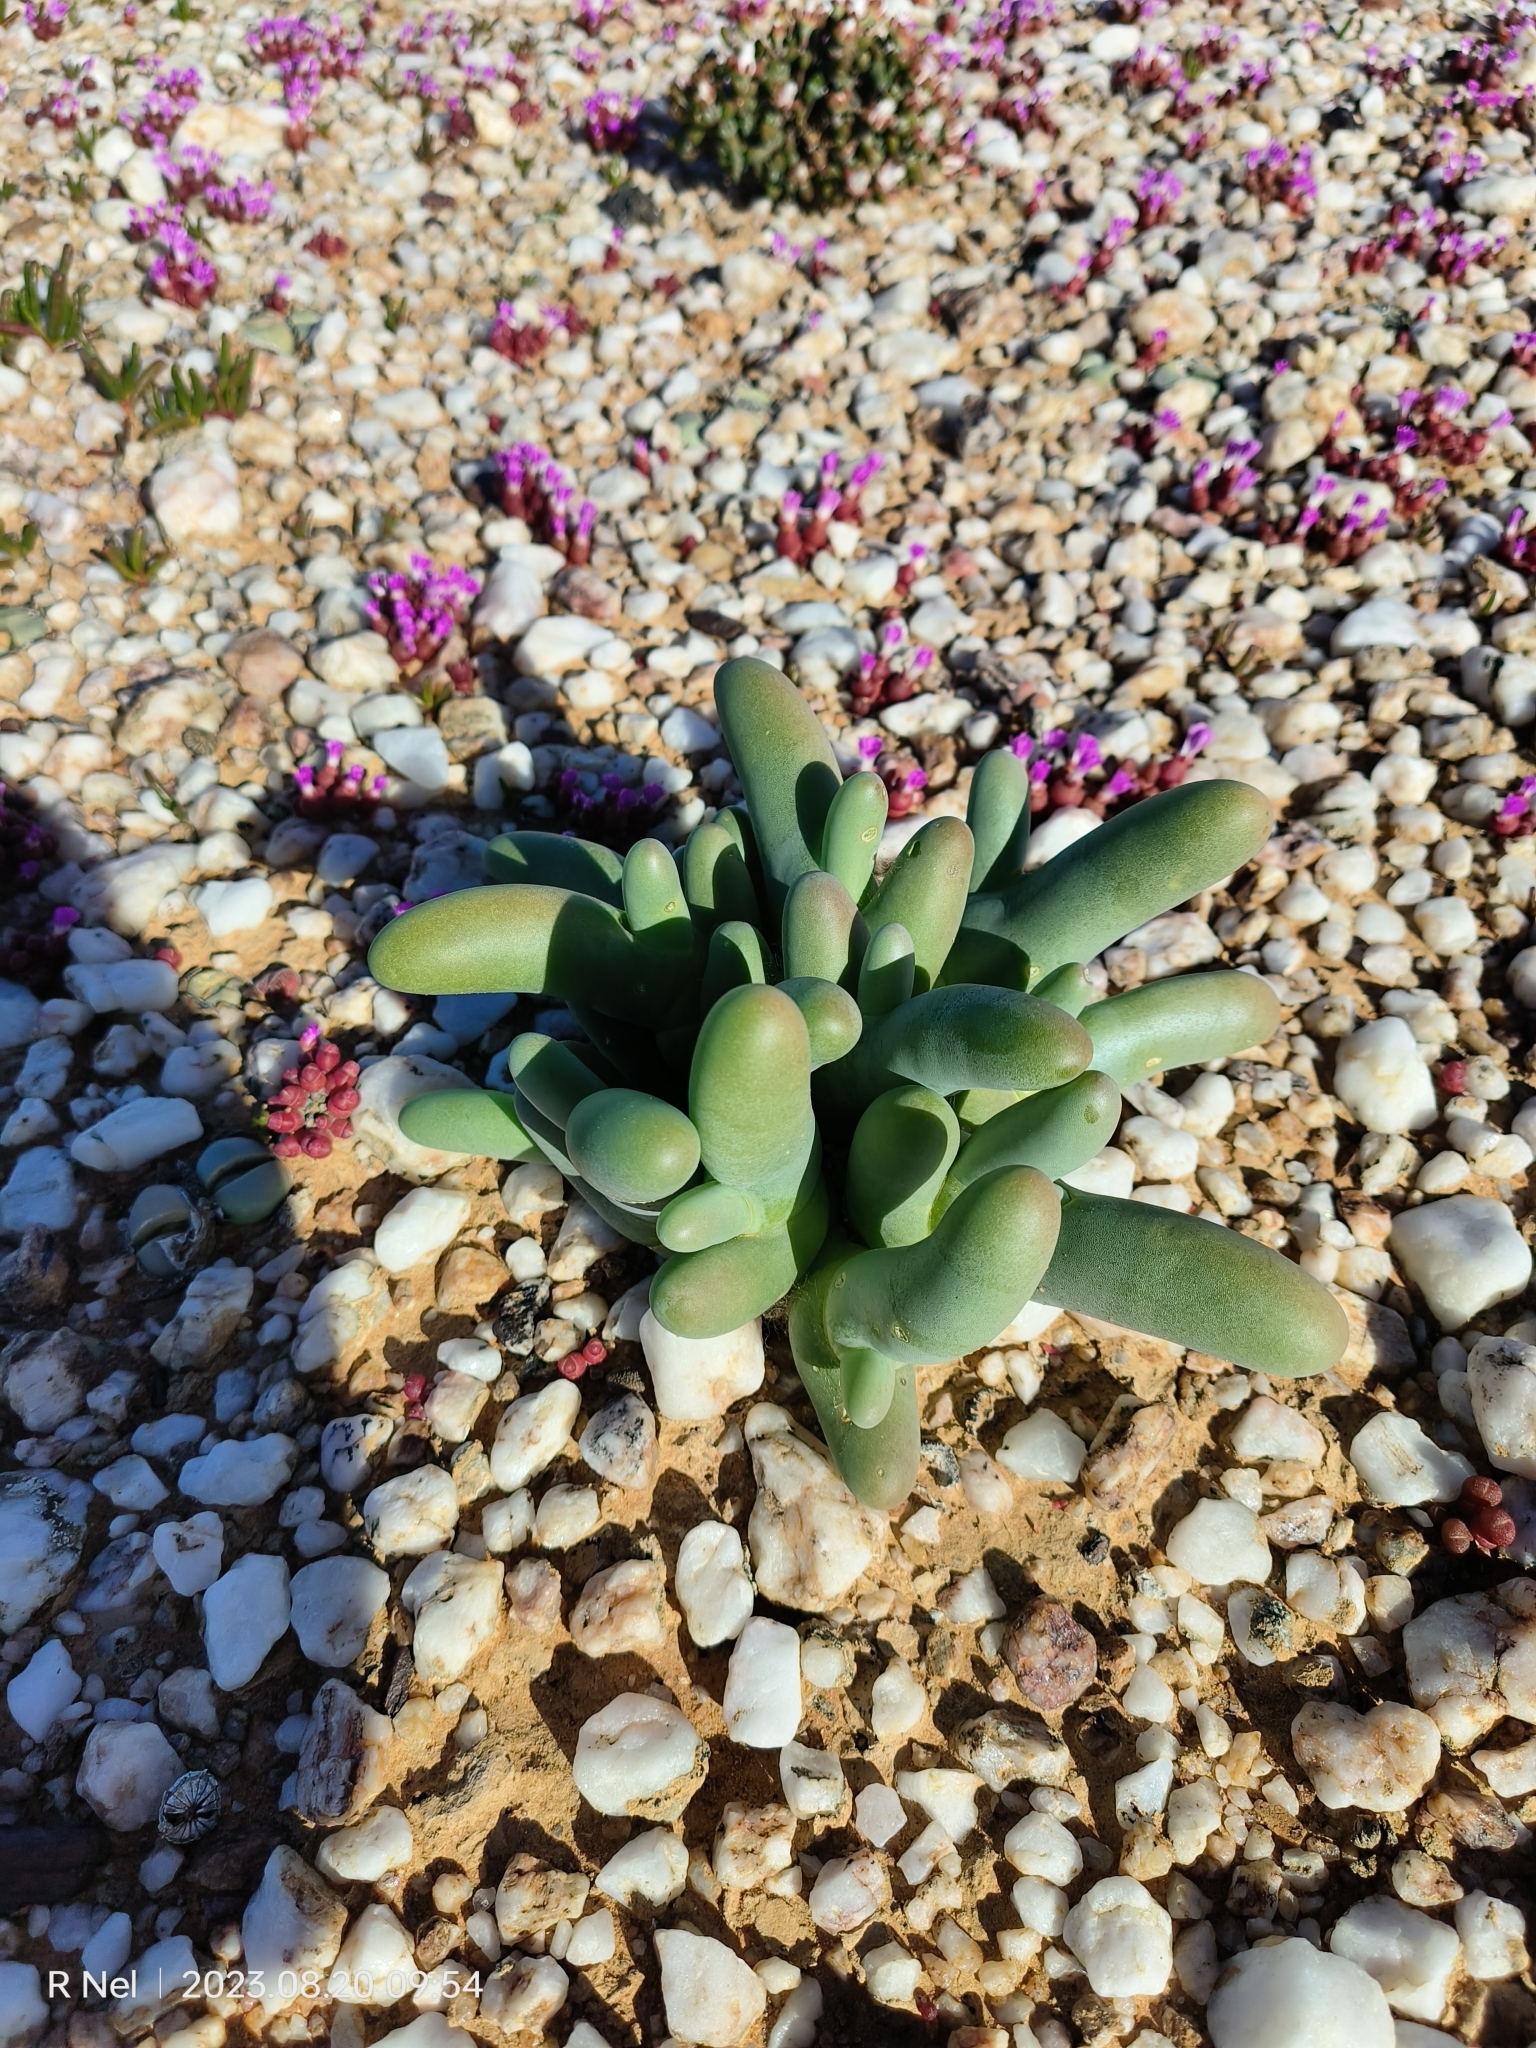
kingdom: Plantae
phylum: Tracheophyta
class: Magnoliopsida
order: Caryophyllales
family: Aizoaceae
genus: Mesembryanthemum
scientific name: Mesembryanthemum digitatum
